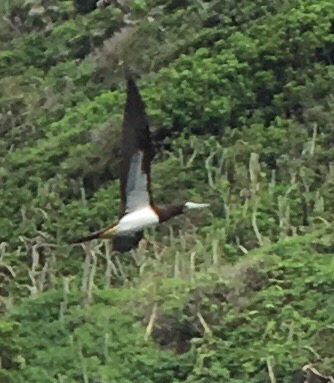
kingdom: Animalia
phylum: Chordata
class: Aves
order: Suliformes
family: Sulidae
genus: Sula
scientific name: Sula leucogaster
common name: Brown booby
